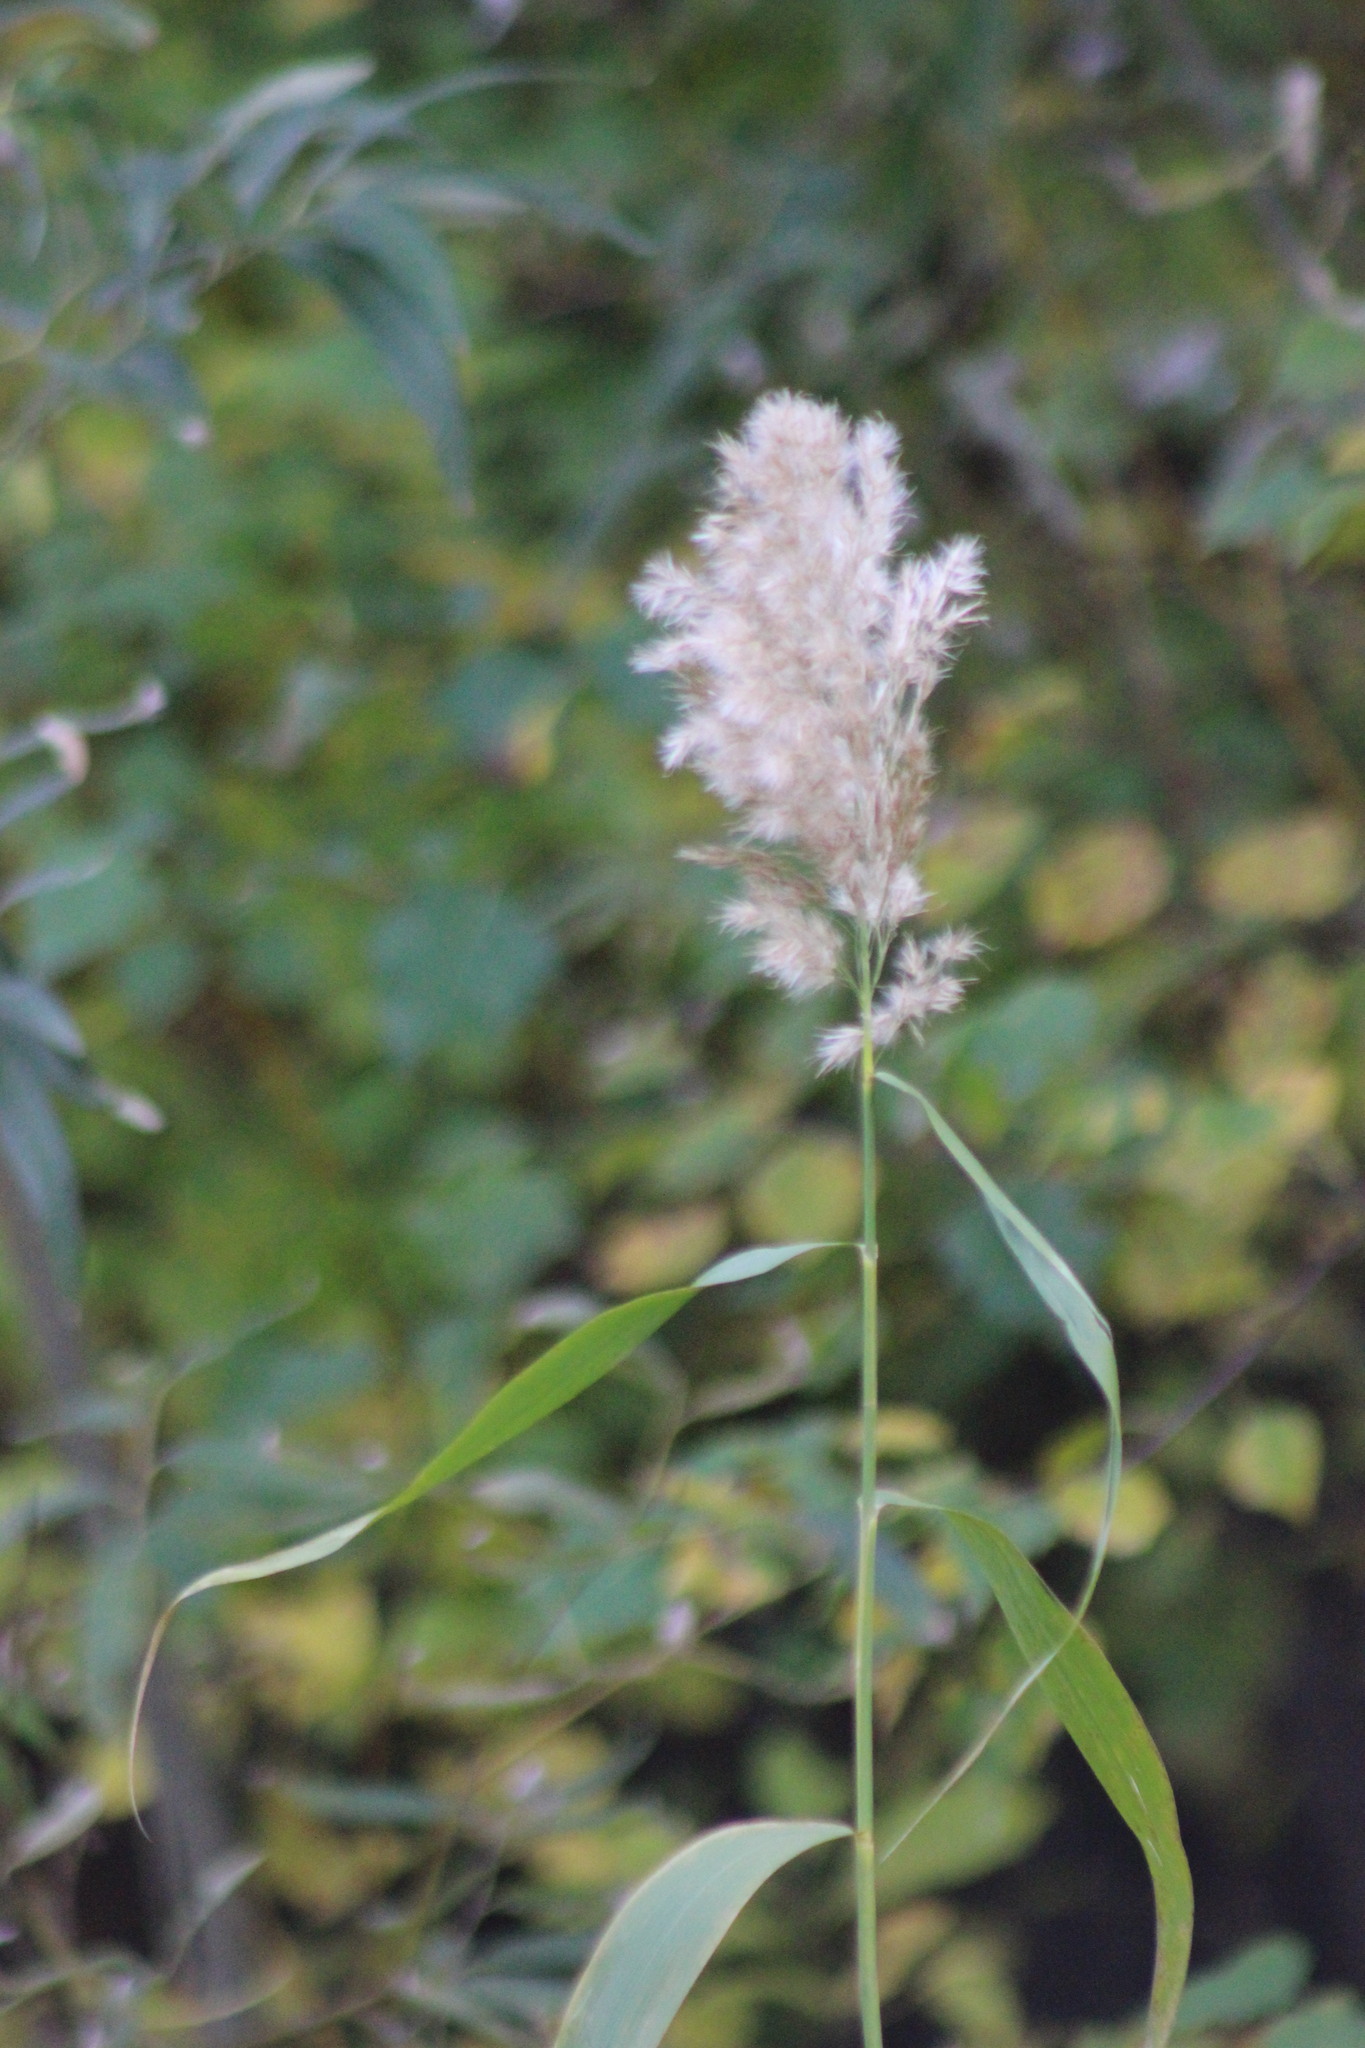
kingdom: Plantae
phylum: Tracheophyta
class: Liliopsida
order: Poales
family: Poaceae
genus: Phragmites
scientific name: Phragmites australis
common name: Common reed
